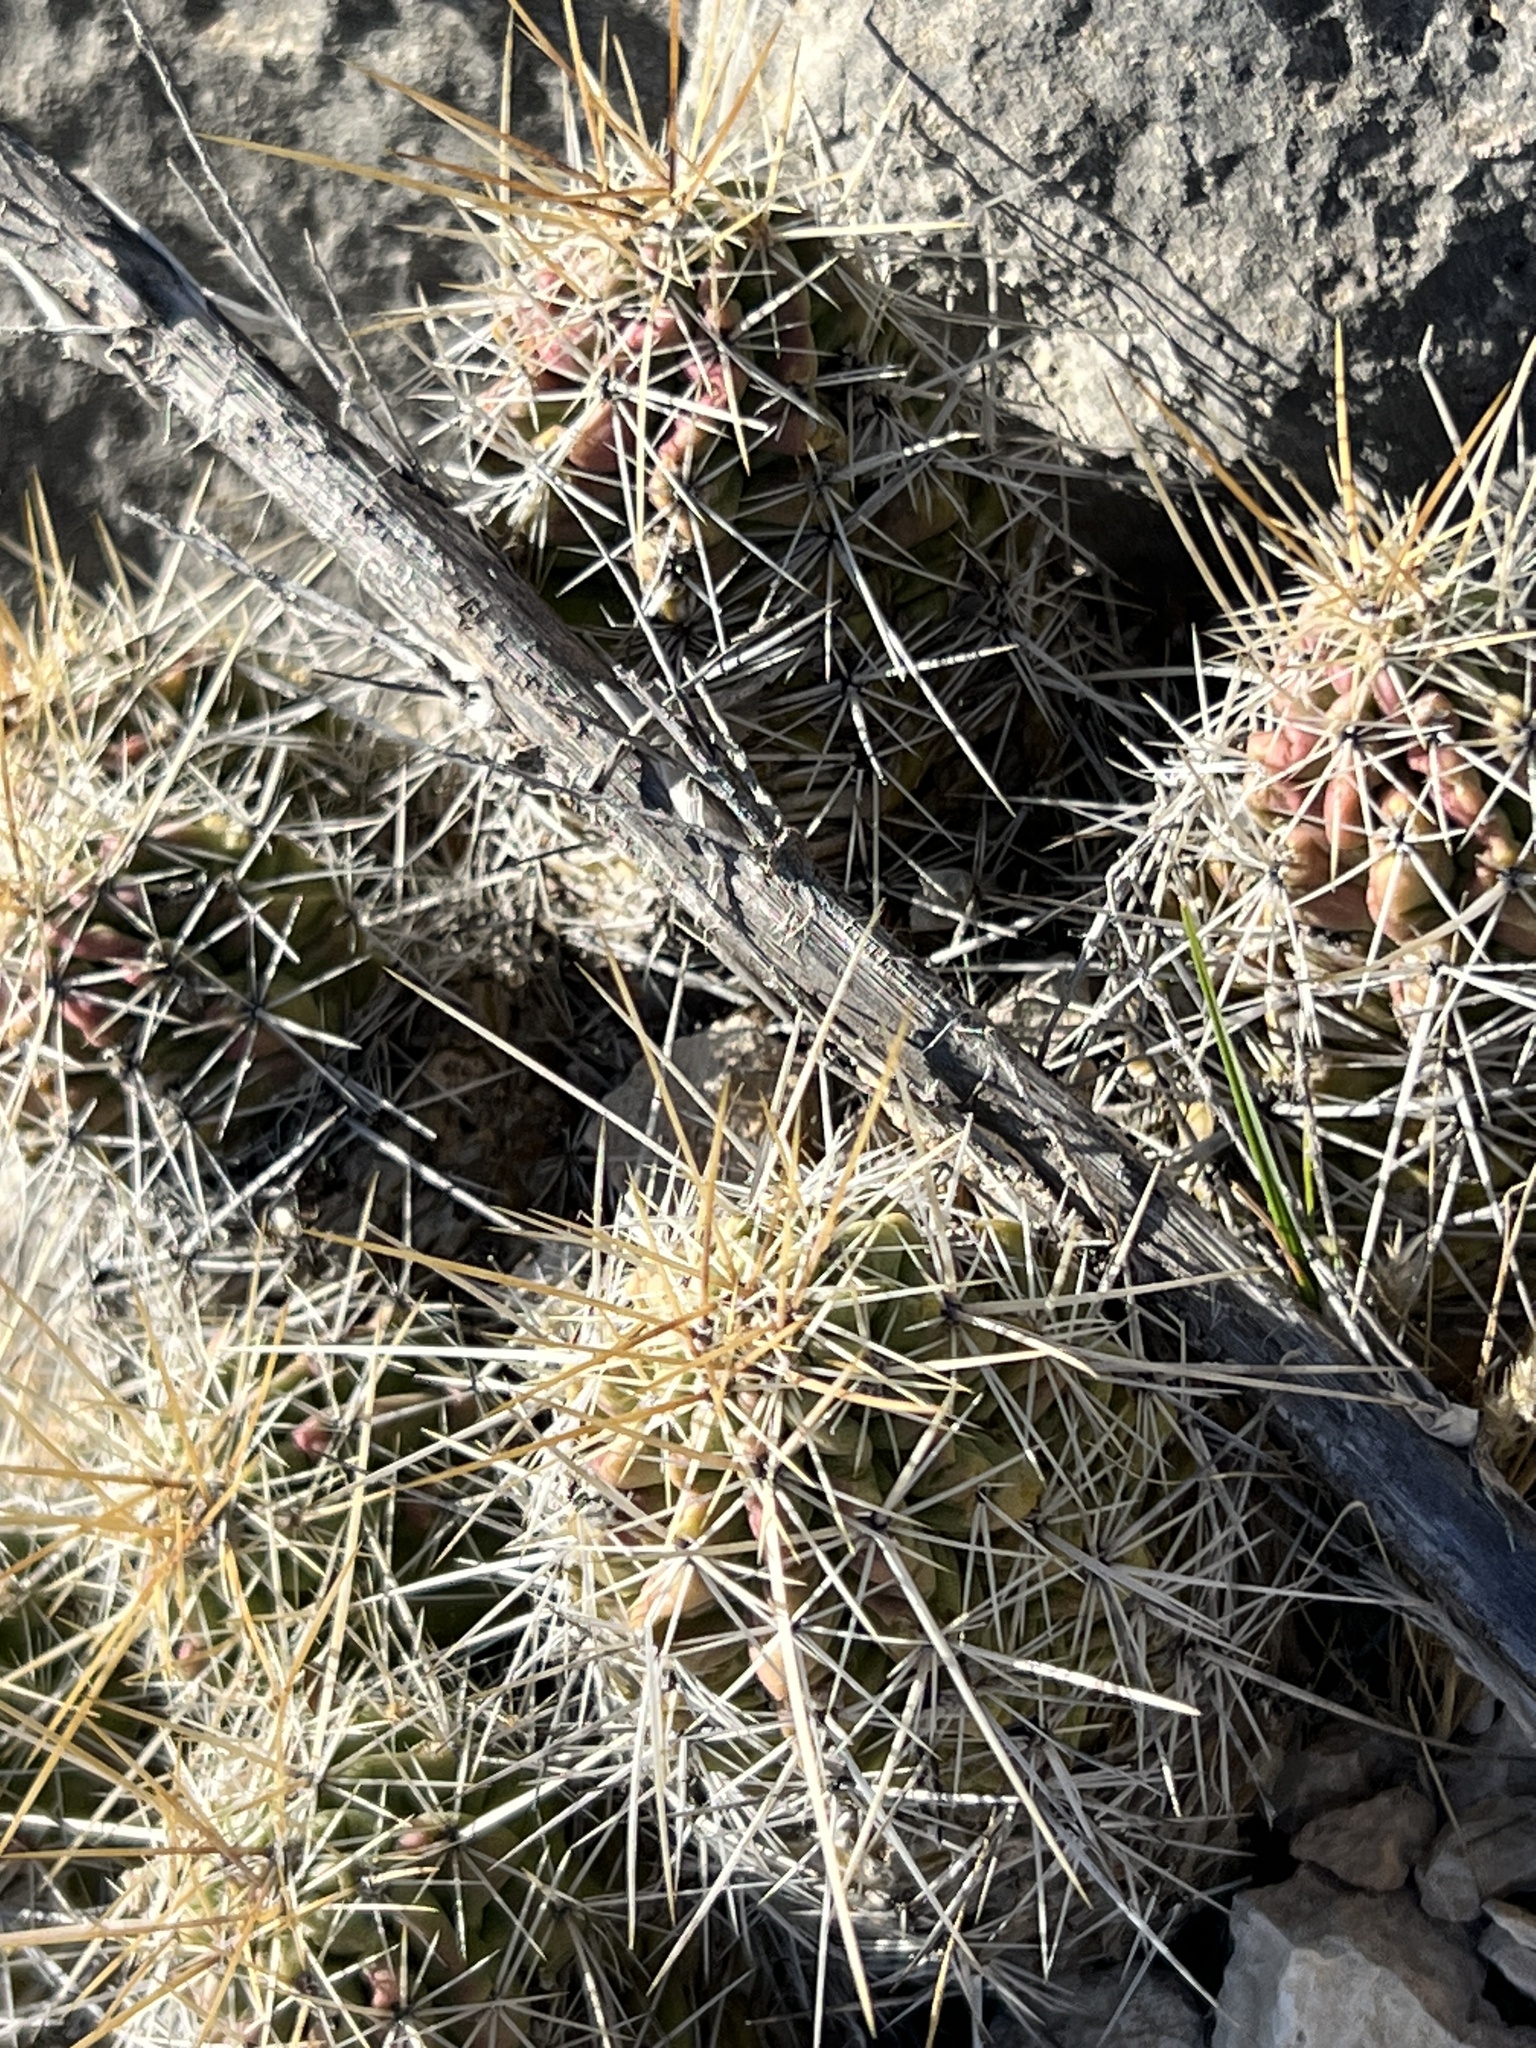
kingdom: Plantae
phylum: Tracheophyta
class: Magnoliopsida
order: Caryophyllales
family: Cactaceae
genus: Echinocereus
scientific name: Echinocereus enneacanthus
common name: Pitaya
